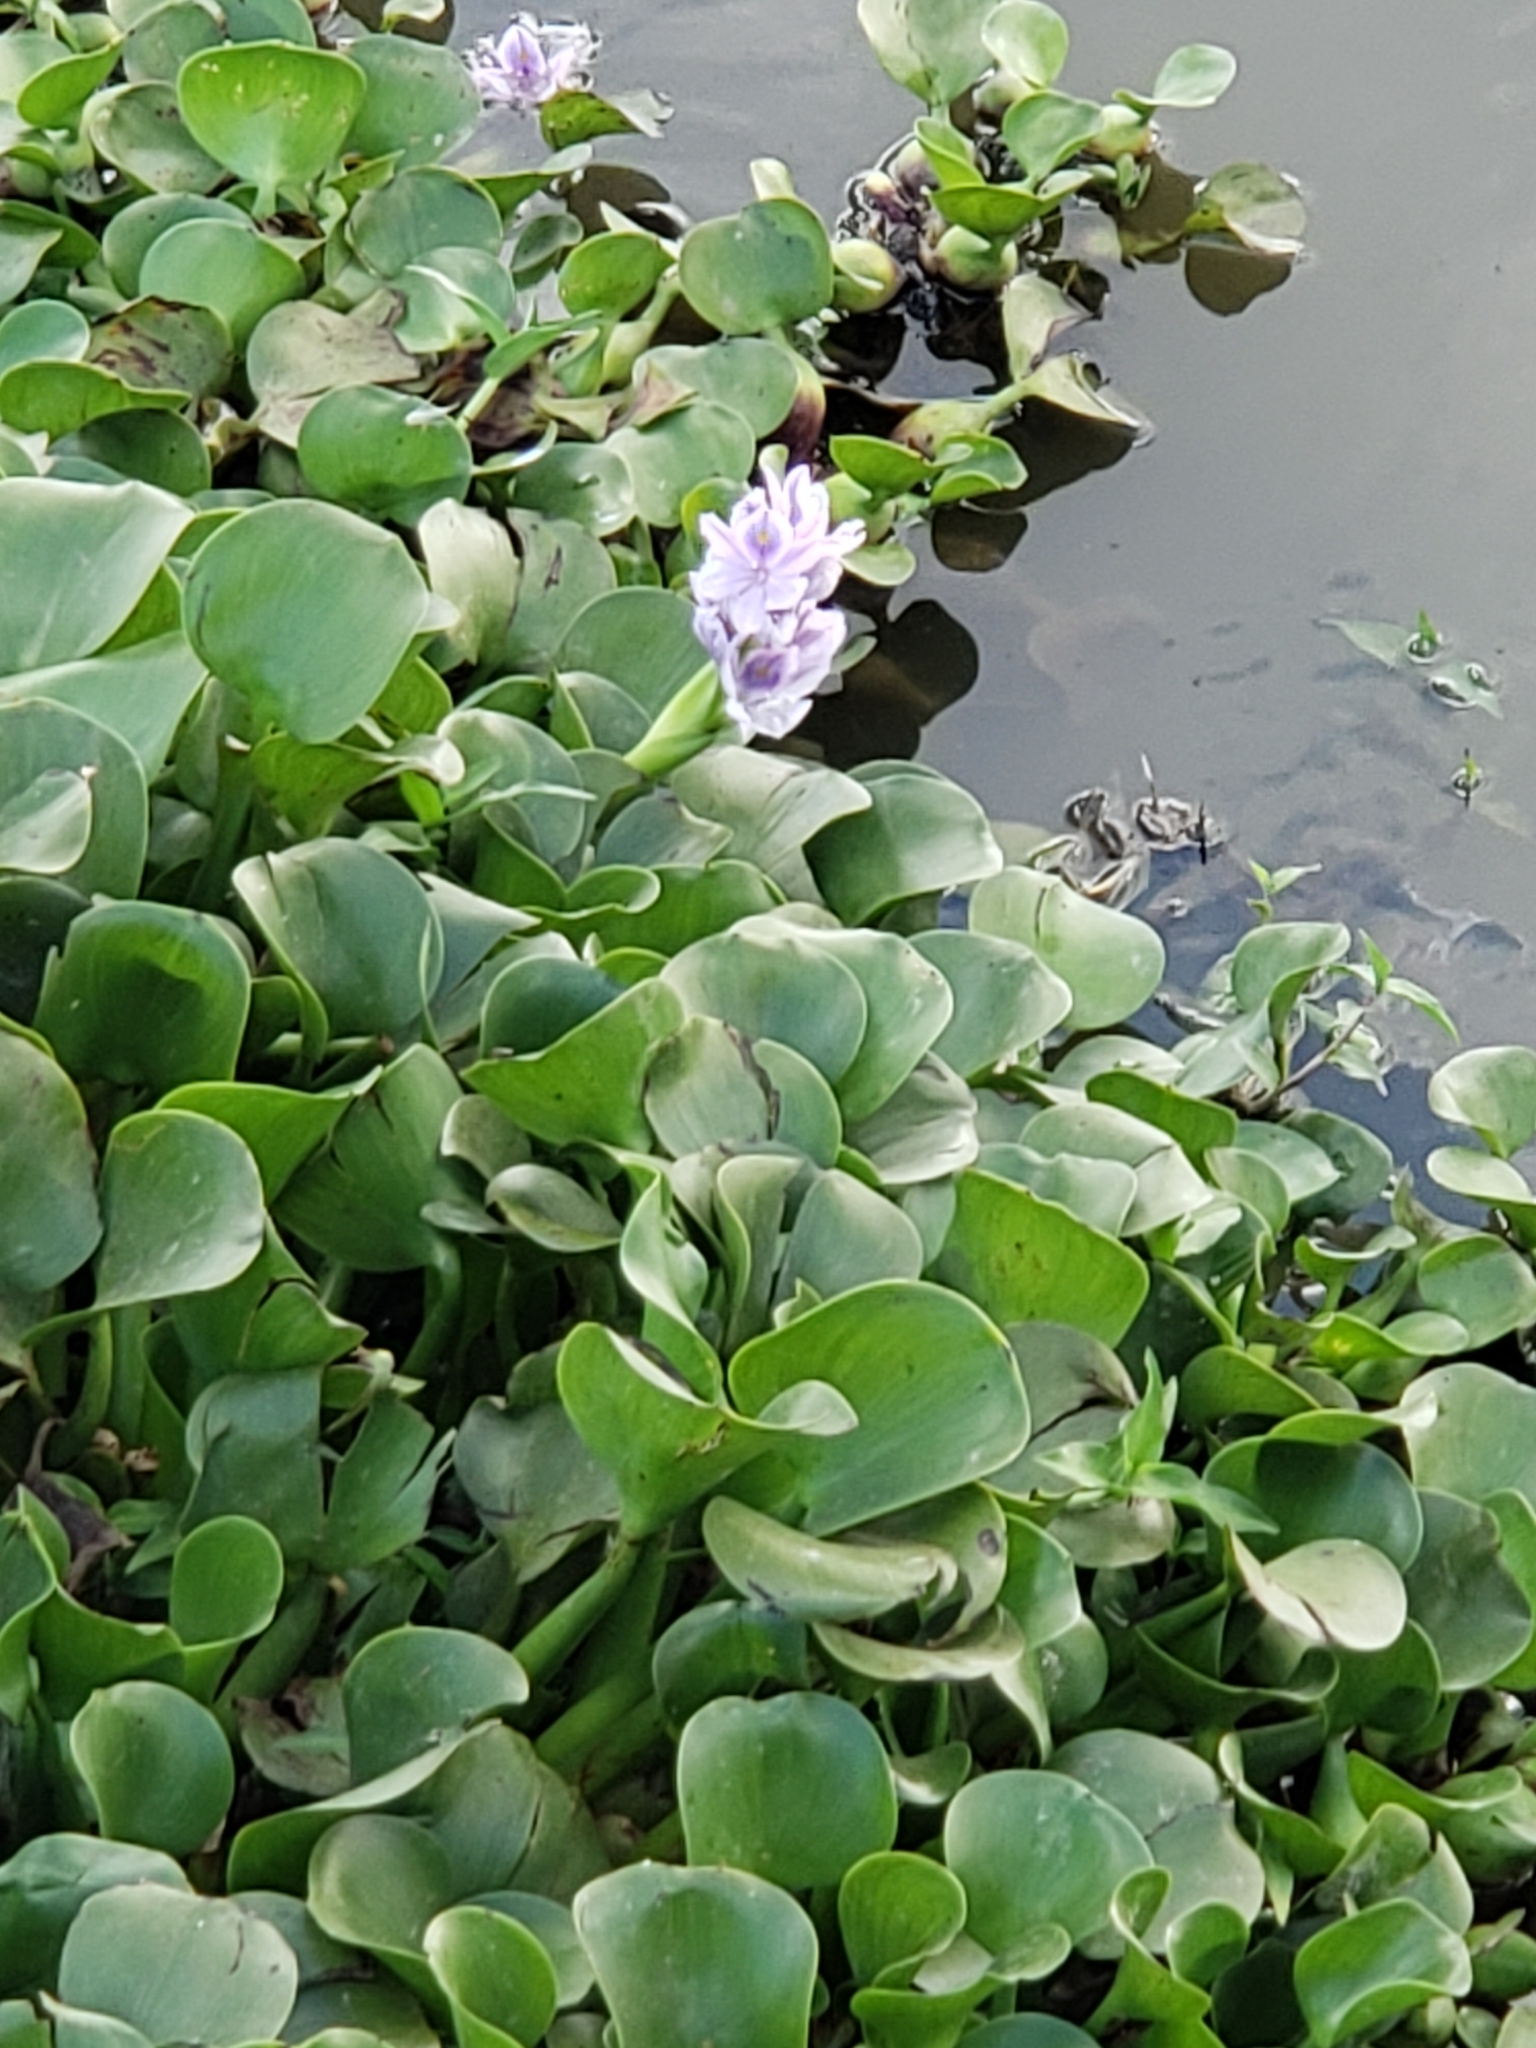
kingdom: Plantae
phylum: Tracheophyta
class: Liliopsida
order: Commelinales
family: Pontederiaceae
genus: Pontederia
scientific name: Pontederia crassipes
